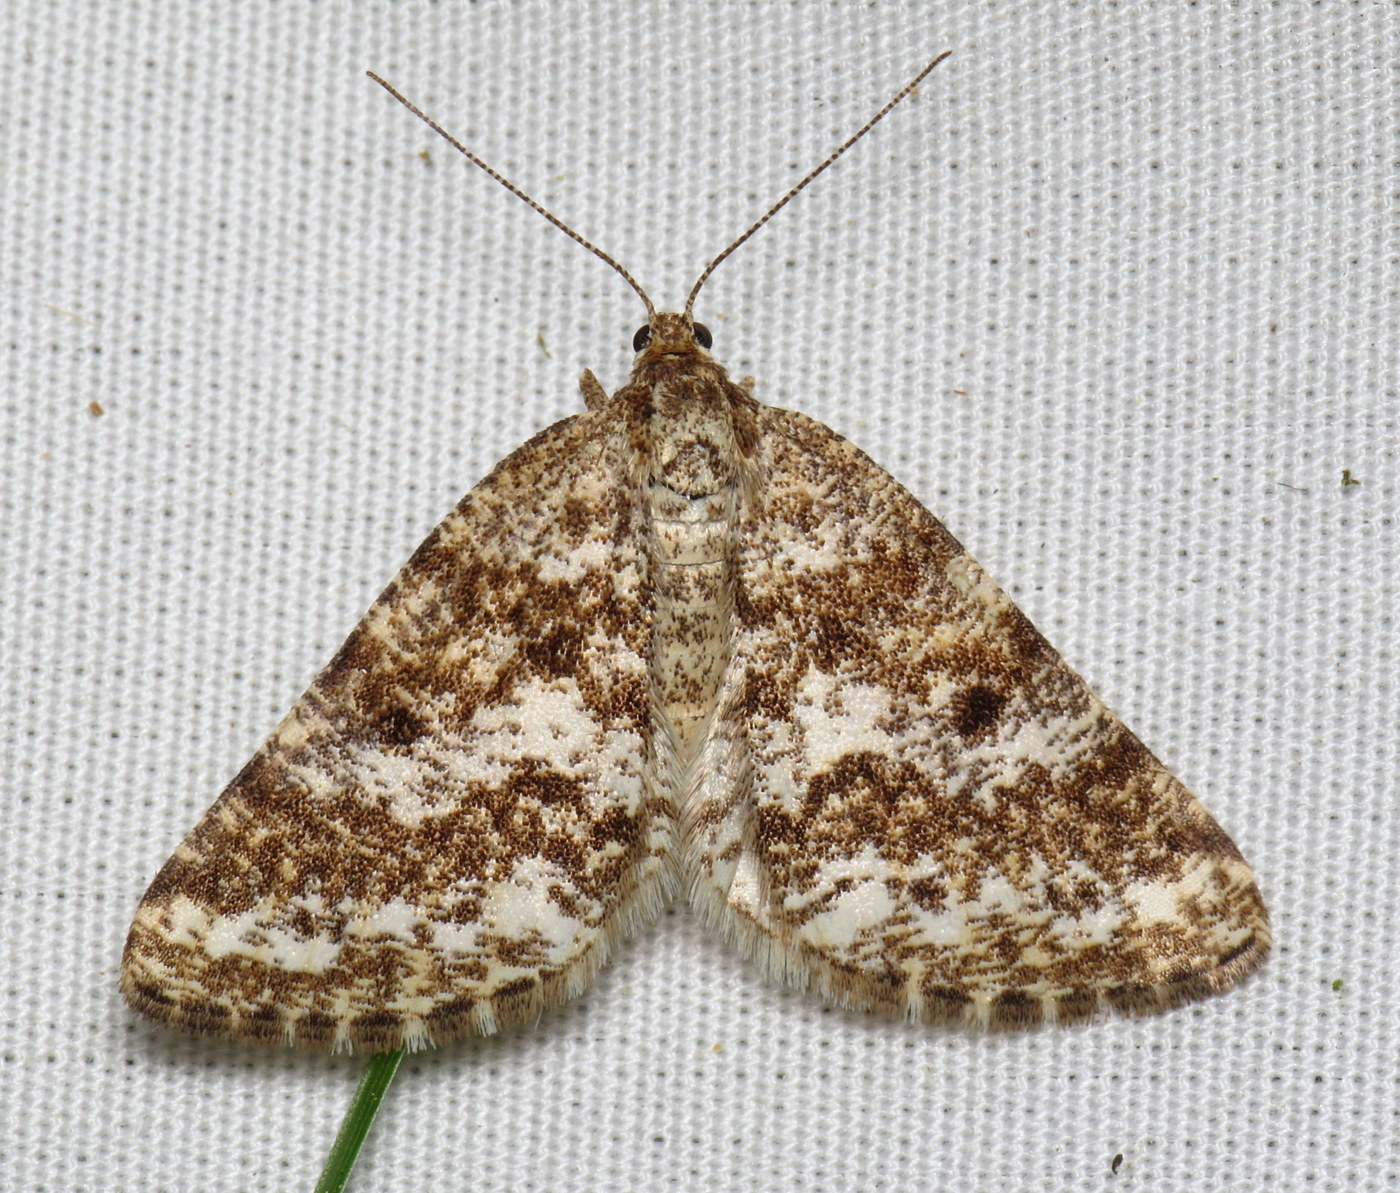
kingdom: Animalia
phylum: Arthropoda
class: Insecta
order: Lepidoptera
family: Geometridae
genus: Eufidonia
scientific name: Eufidonia notataria
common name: Powder moth
